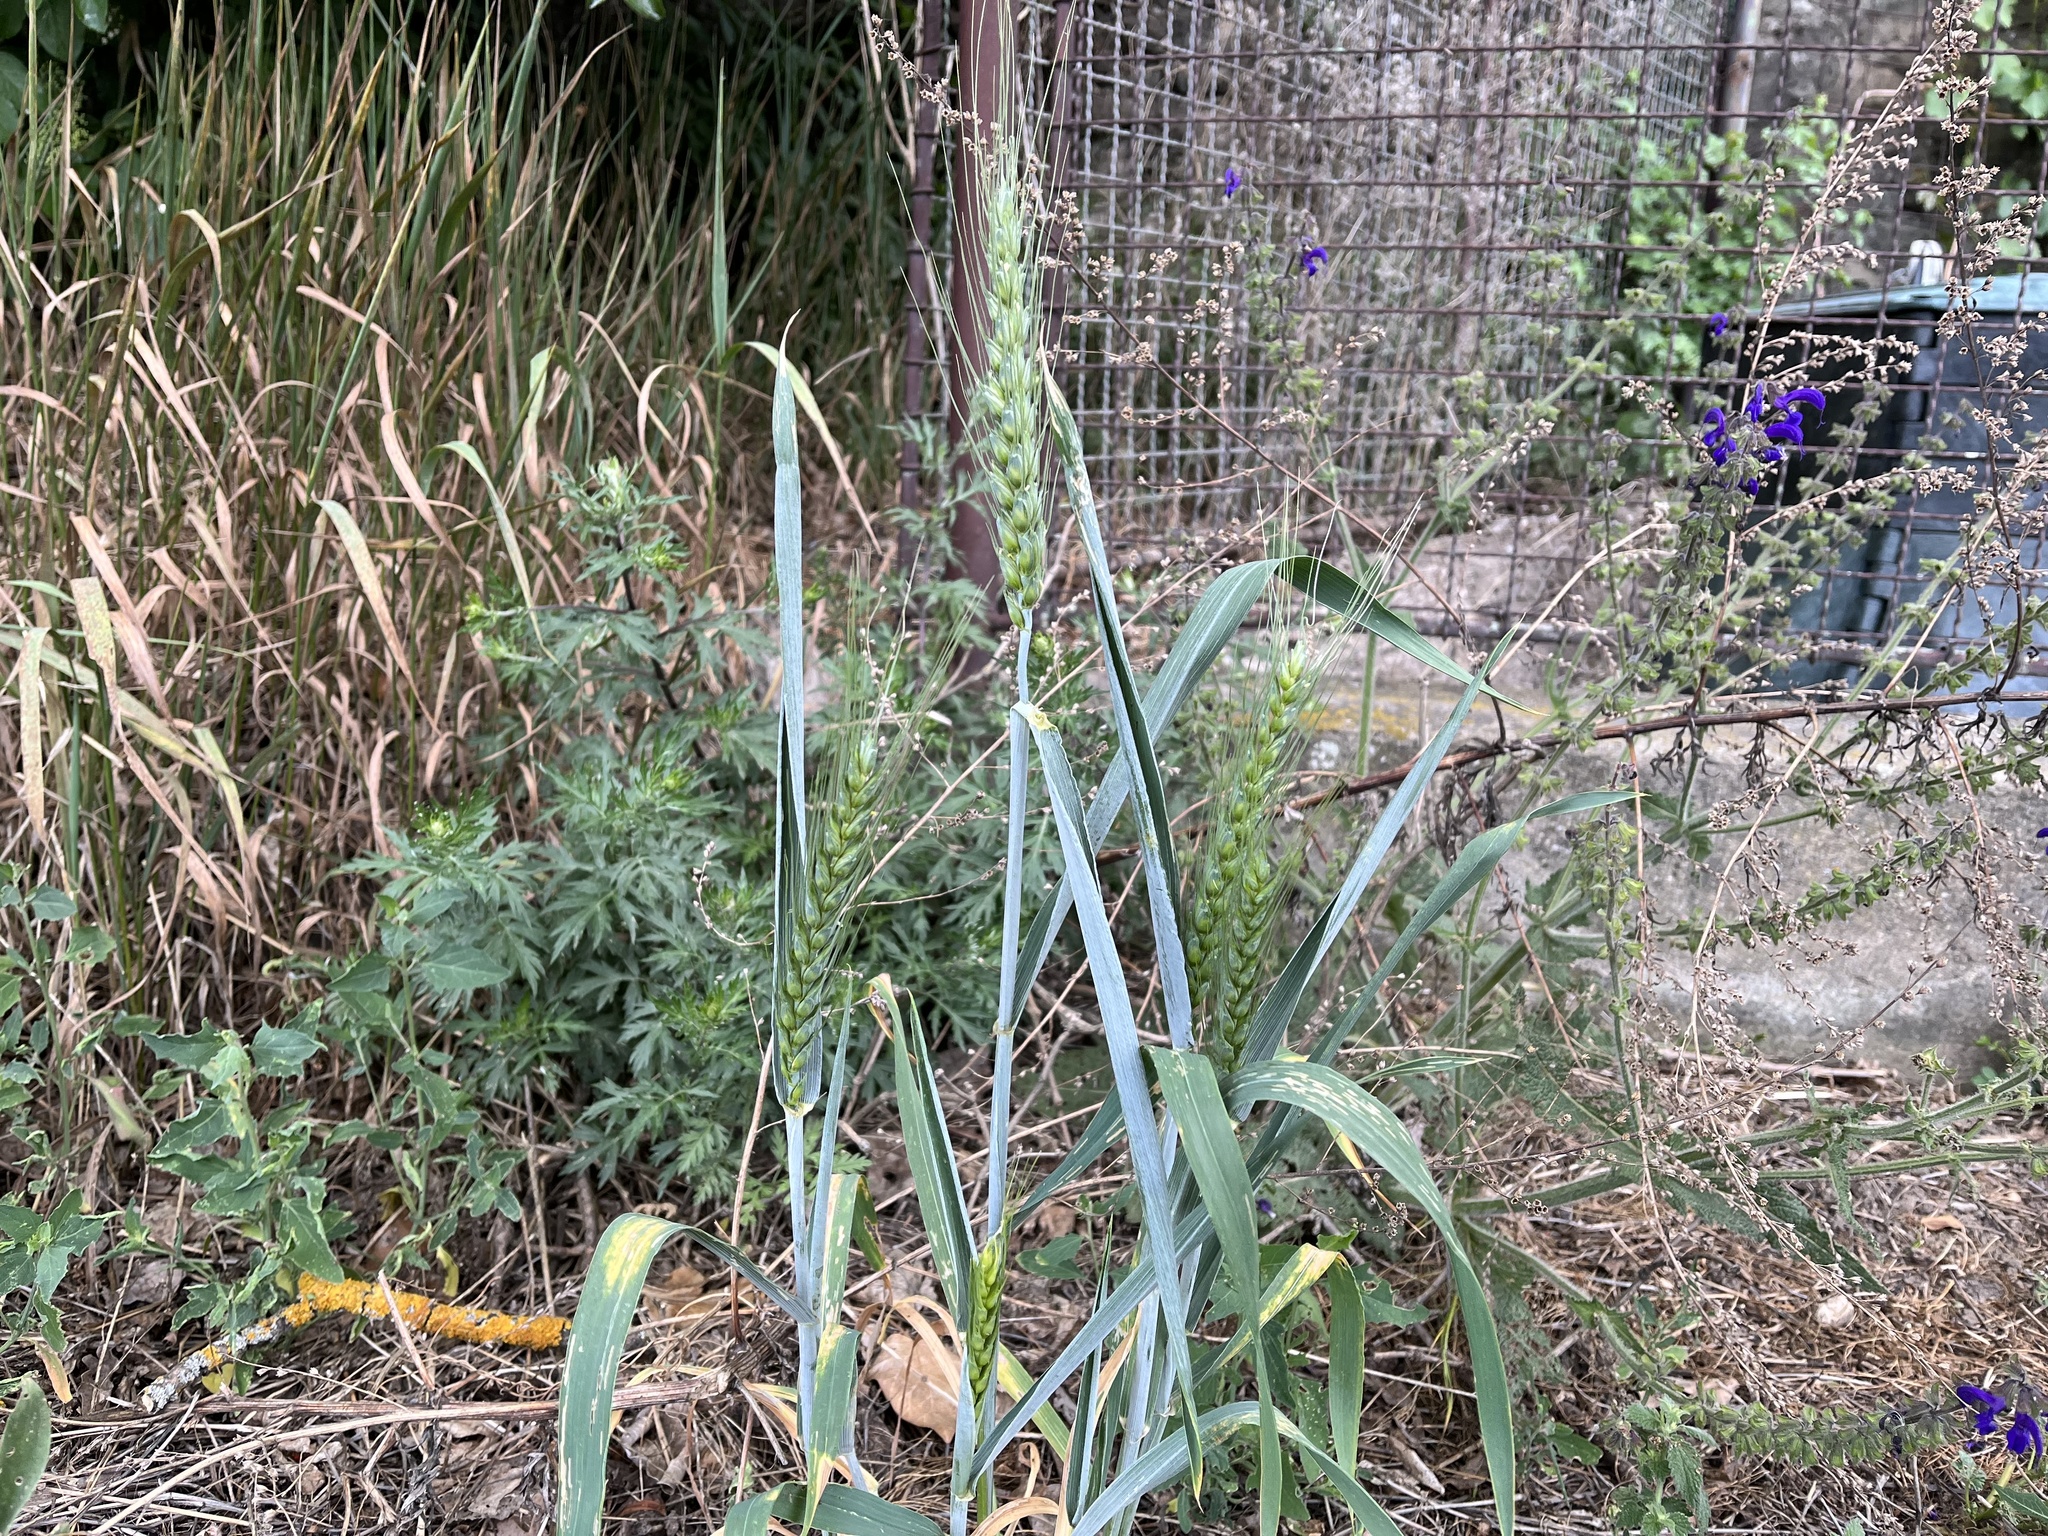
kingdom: Plantae
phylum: Tracheophyta
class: Liliopsida
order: Poales
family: Poaceae
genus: Triticum
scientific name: Triticum aestivum
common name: Common wheat
